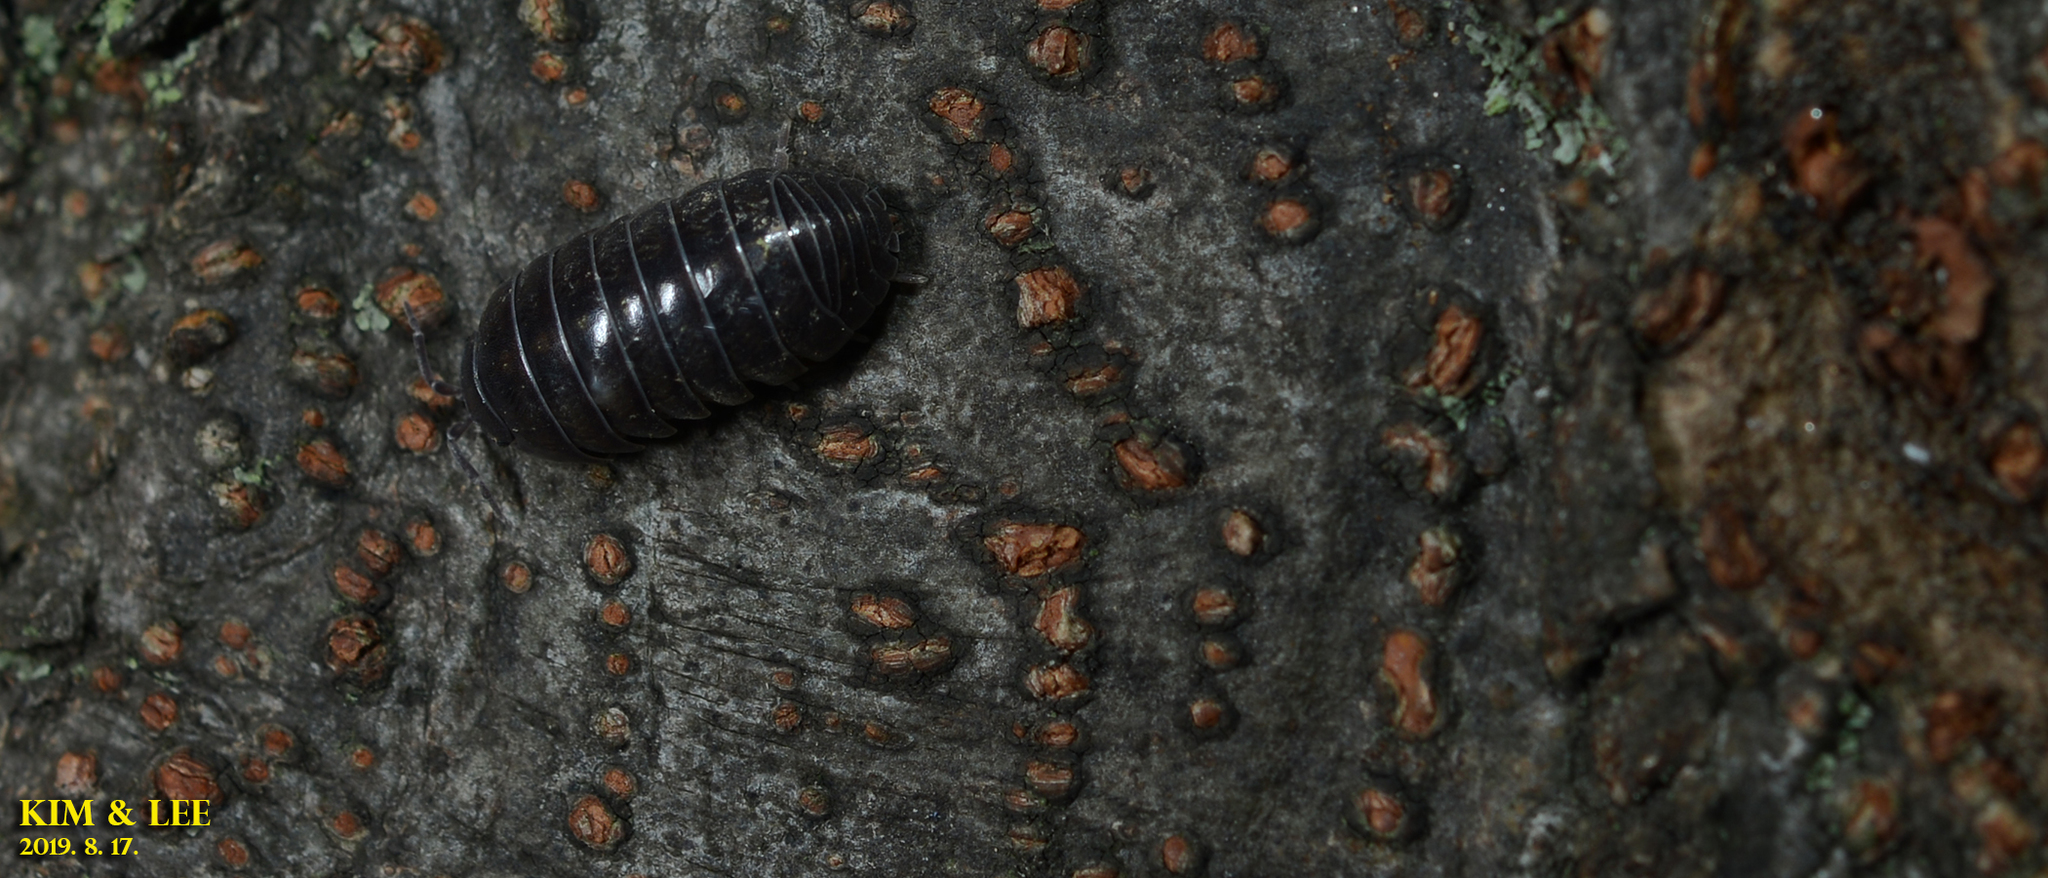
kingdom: Animalia
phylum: Arthropoda
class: Malacostraca
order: Isopoda
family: Armadillidiidae
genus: Armadillidium
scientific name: Armadillidium vulgare
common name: Common pill woodlouse
